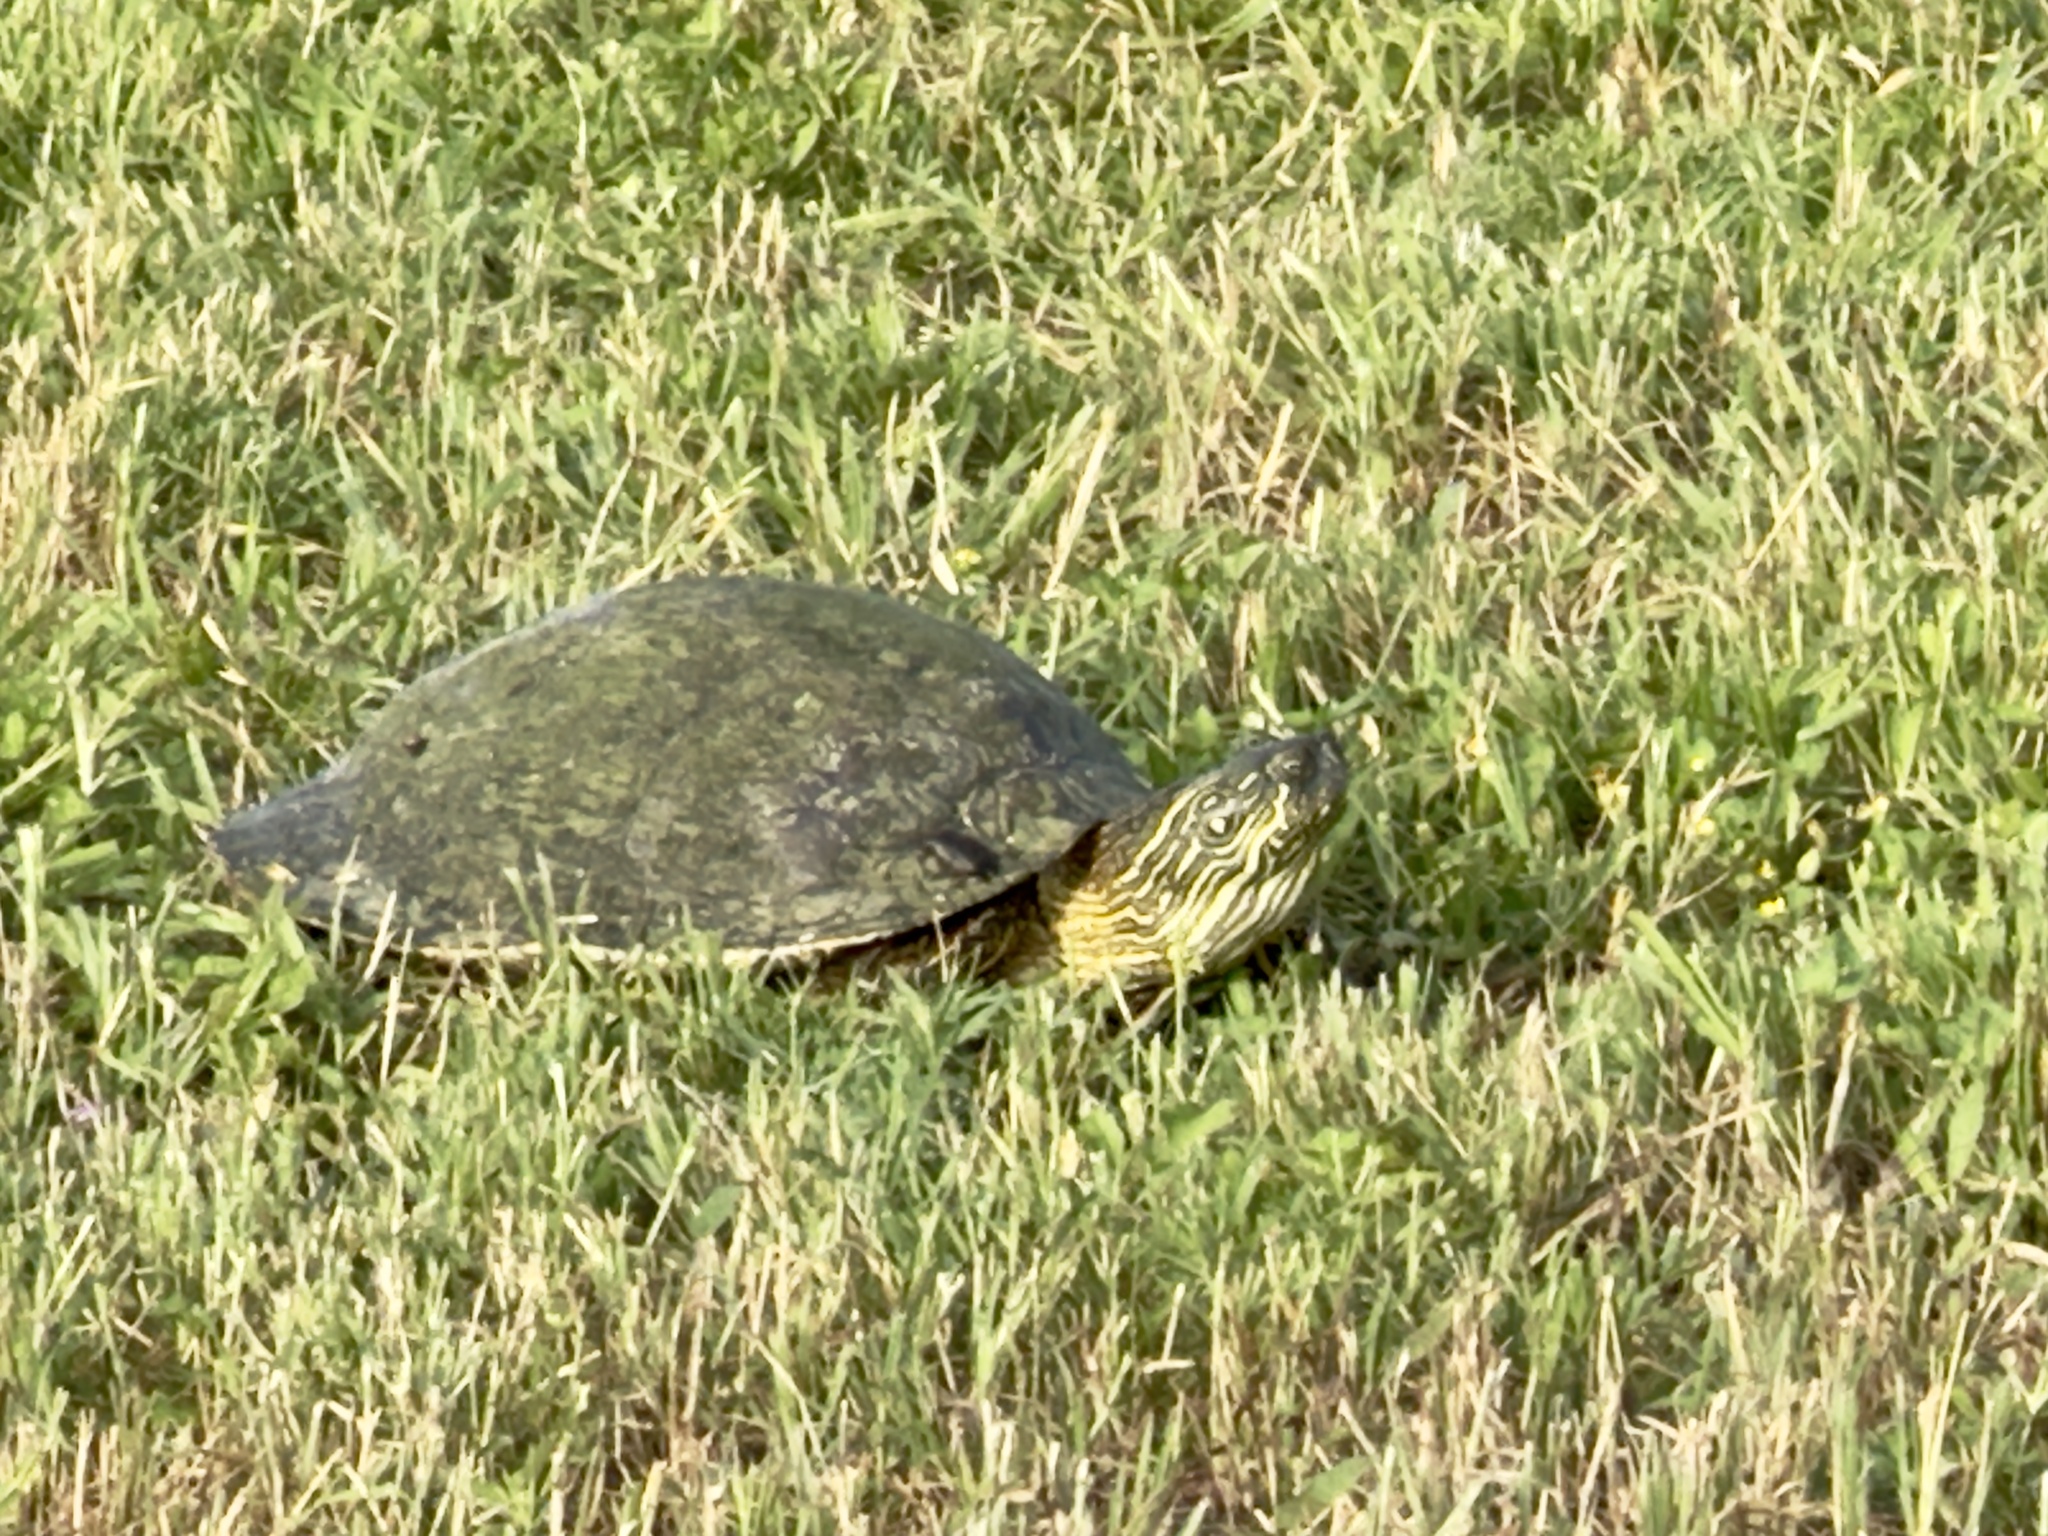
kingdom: Animalia
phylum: Chordata
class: Testudines
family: Emydidae
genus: Pseudemys
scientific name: Pseudemys texana
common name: Texas river cooter
